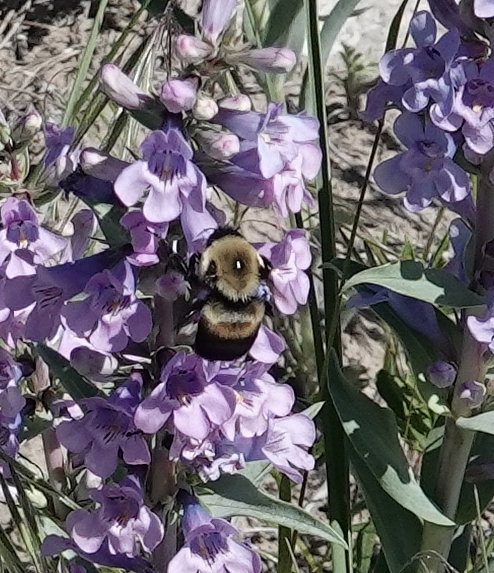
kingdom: Animalia
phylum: Arthropoda
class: Insecta
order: Hymenoptera
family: Apidae
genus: Bombus
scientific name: Bombus griseocollis
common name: Brown-belted bumble bee
